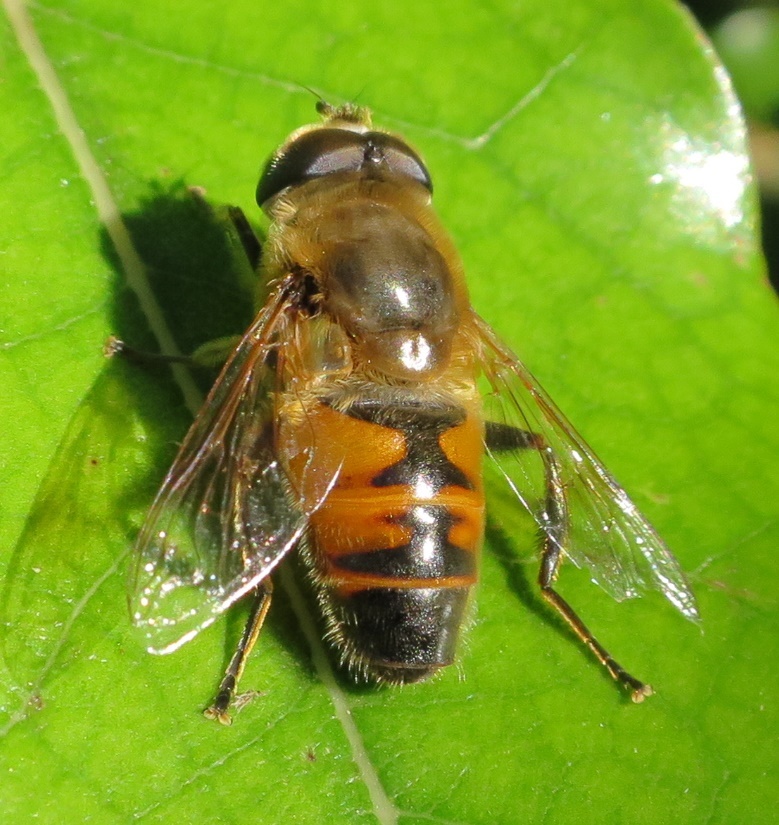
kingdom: Animalia
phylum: Arthropoda
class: Insecta
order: Diptera
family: Syrphidae
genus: Eristalis
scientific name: Eristalis tenax
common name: Drone fly
